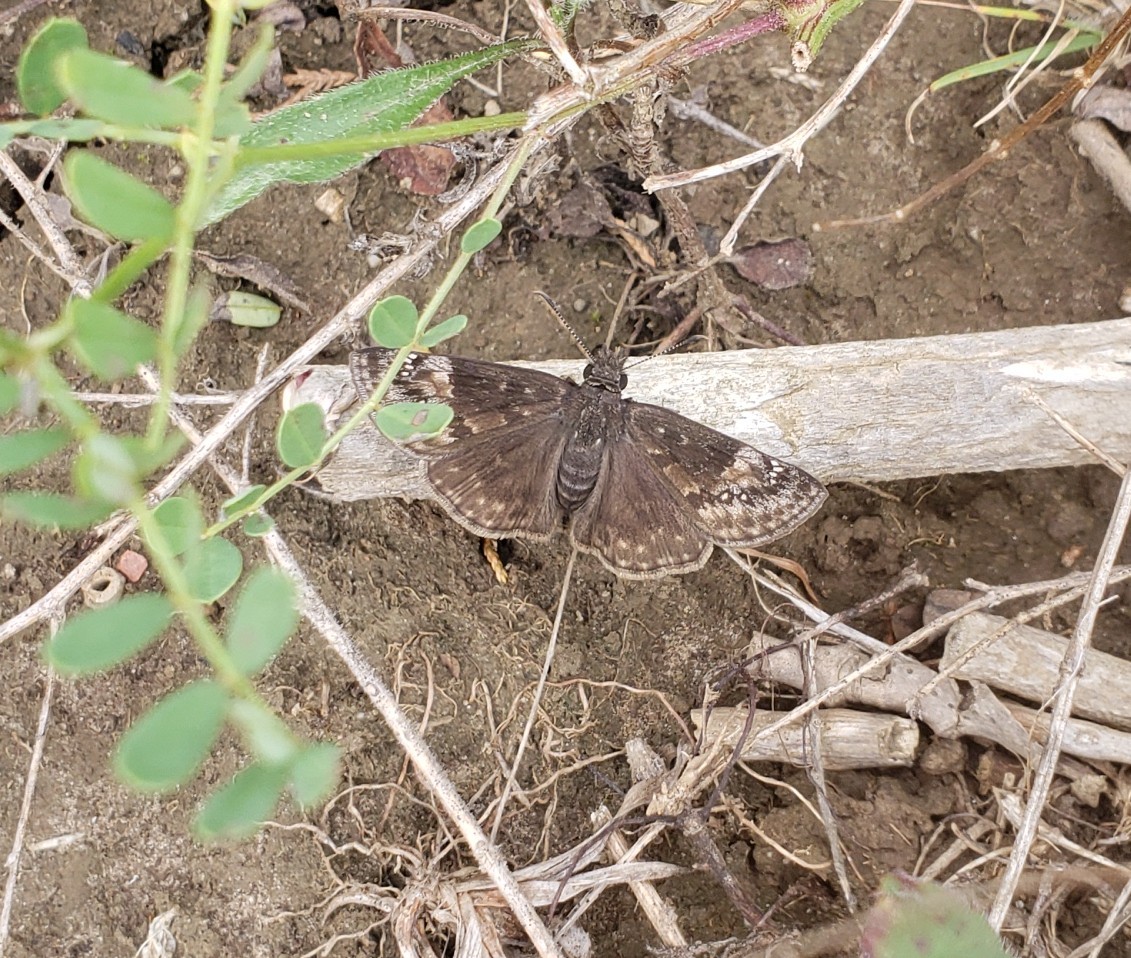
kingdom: Animalia
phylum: Arthropoda
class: Insecta
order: Lepidoptera
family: Hesperiidae
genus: Erynnis
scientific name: Erynnis baptisiae
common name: Wild indigo duskywing
